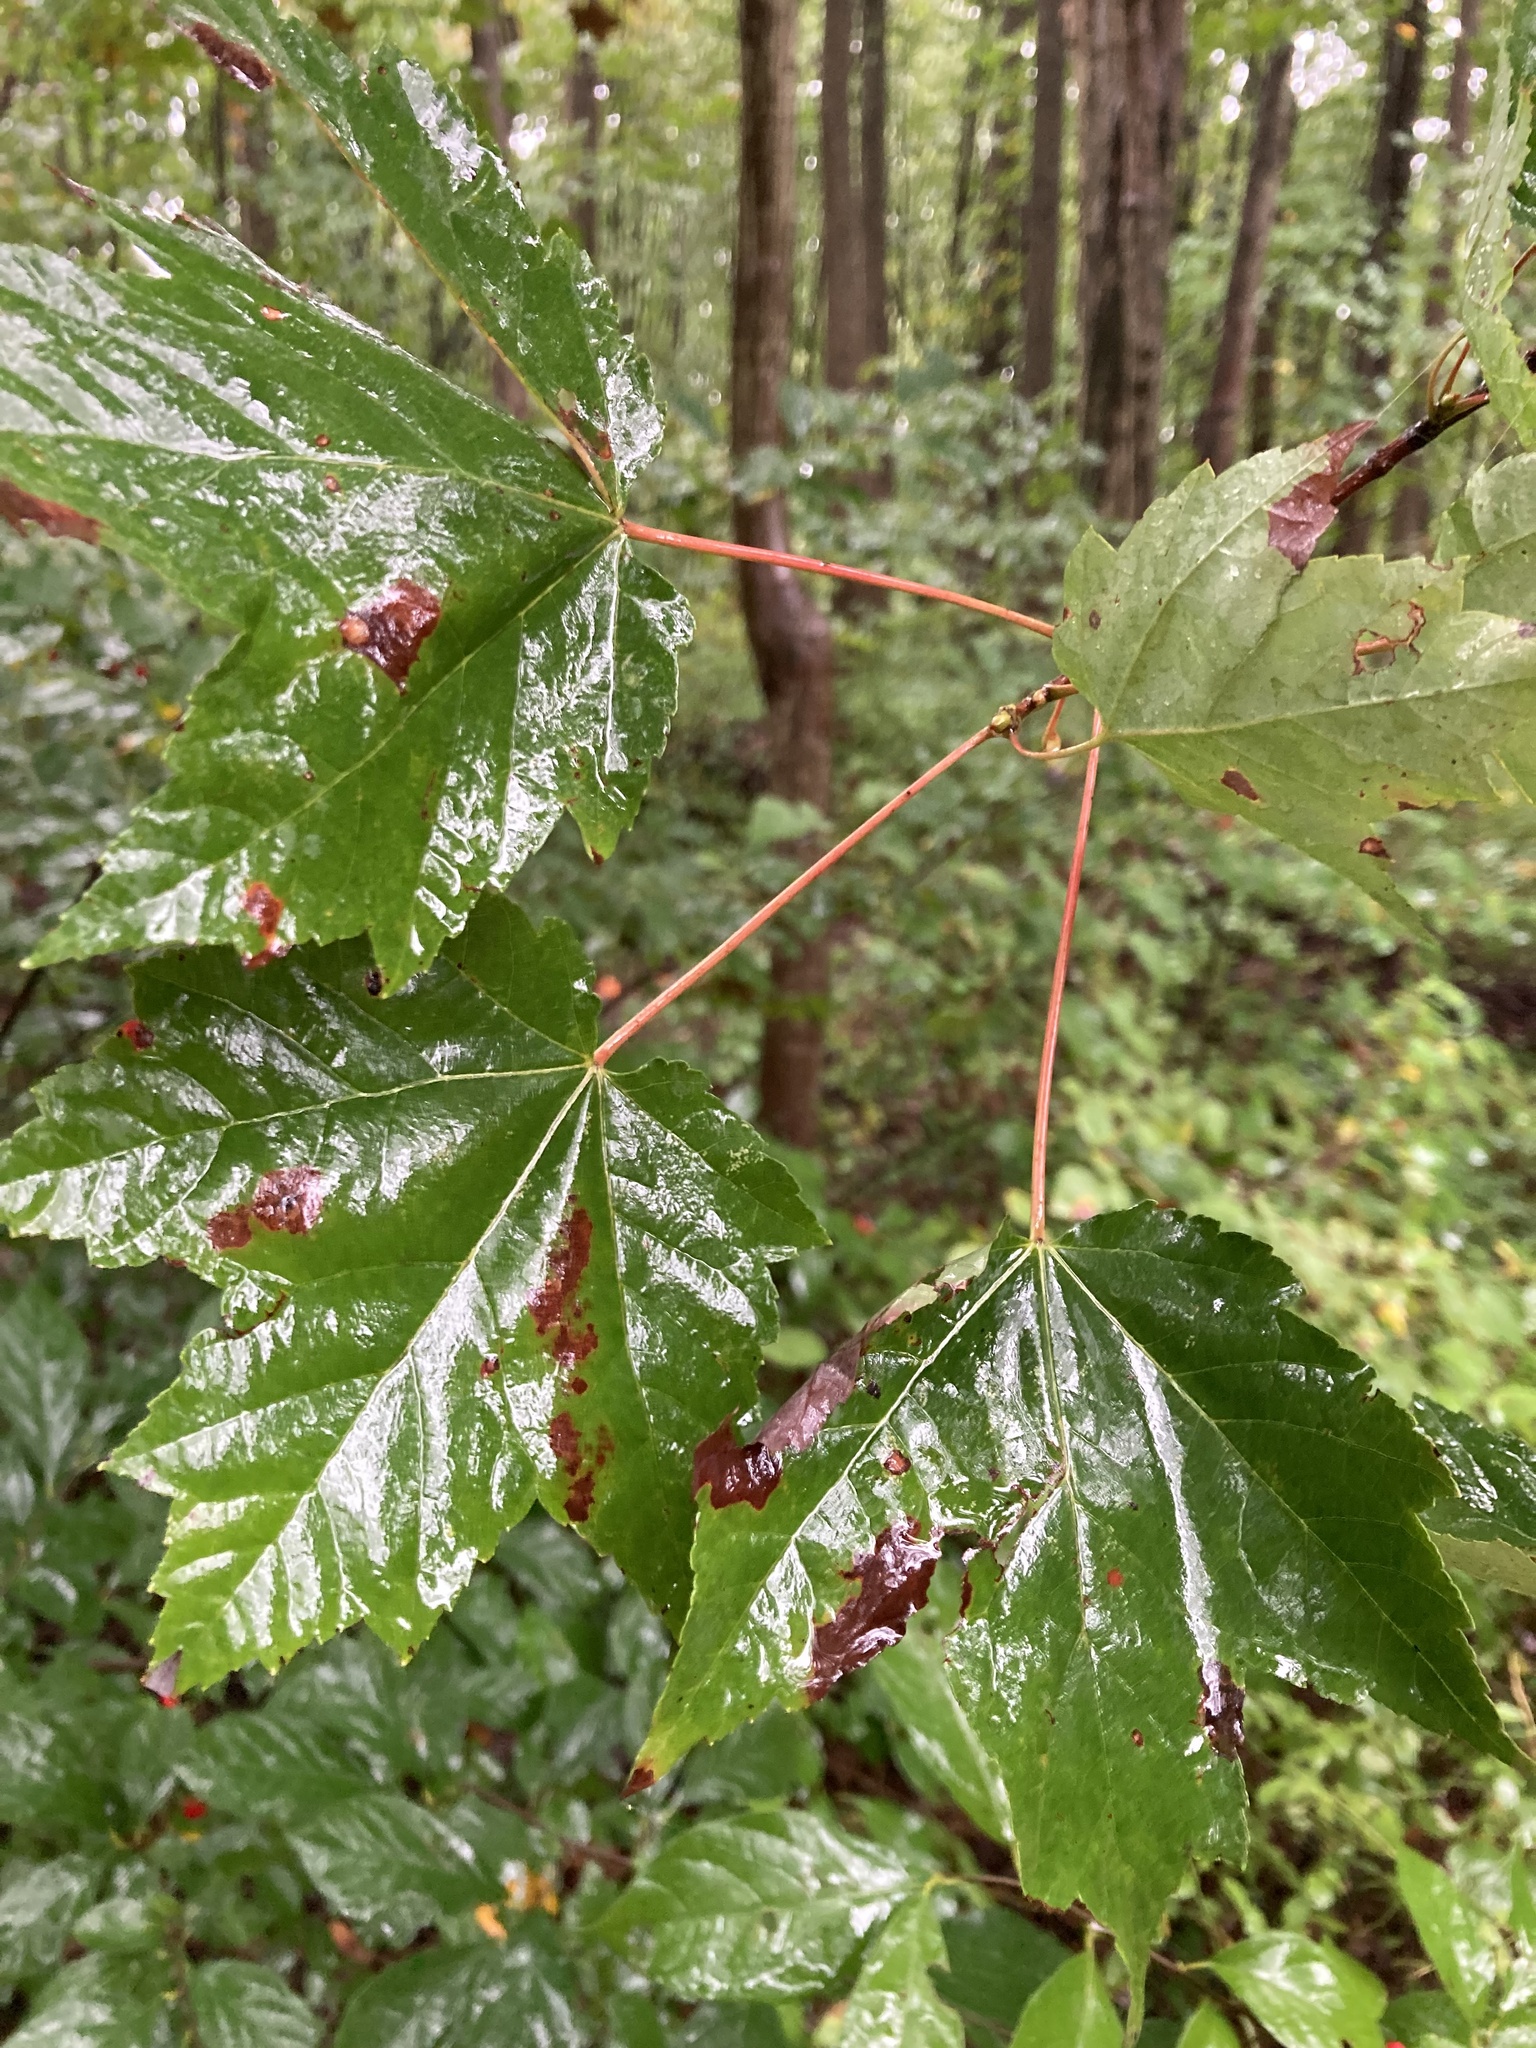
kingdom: Plantae
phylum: Tracheophyta
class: Magnoliopsida
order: Sapindales
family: Sapindaceae
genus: Acer
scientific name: Acer rubrum
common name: Red maple
